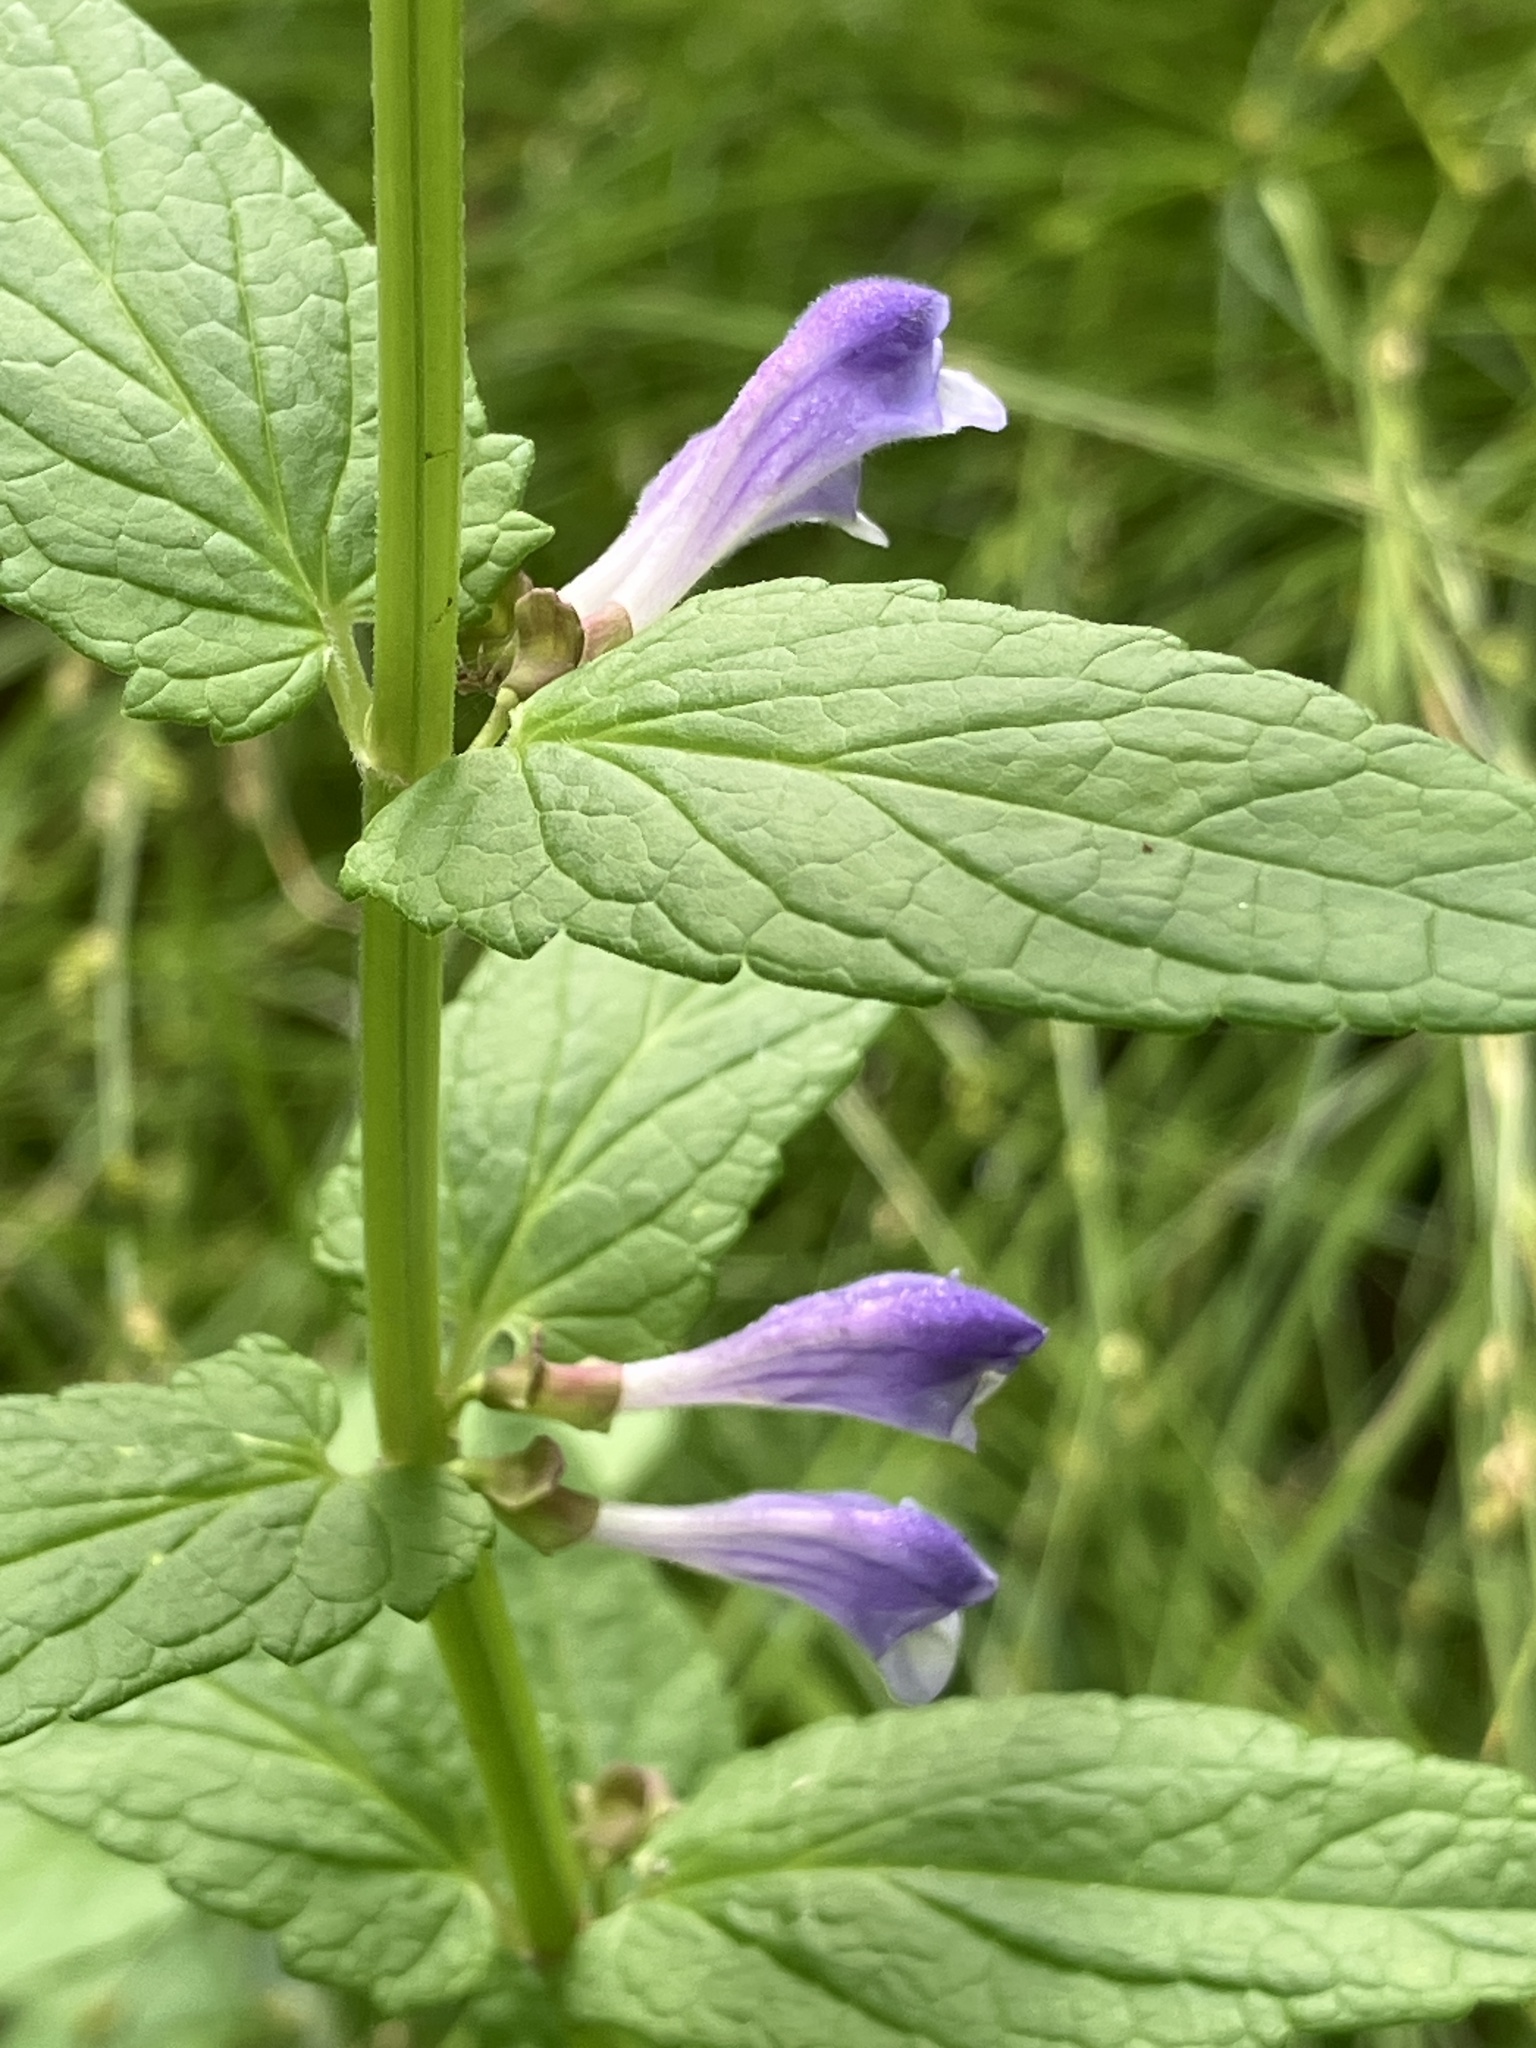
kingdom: Plantae
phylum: Tracheophyta
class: Magnoliopsida
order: Lamiales
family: Lamiaceae
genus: Scutellaria
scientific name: Scutellaria galericulata
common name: Skullcap
